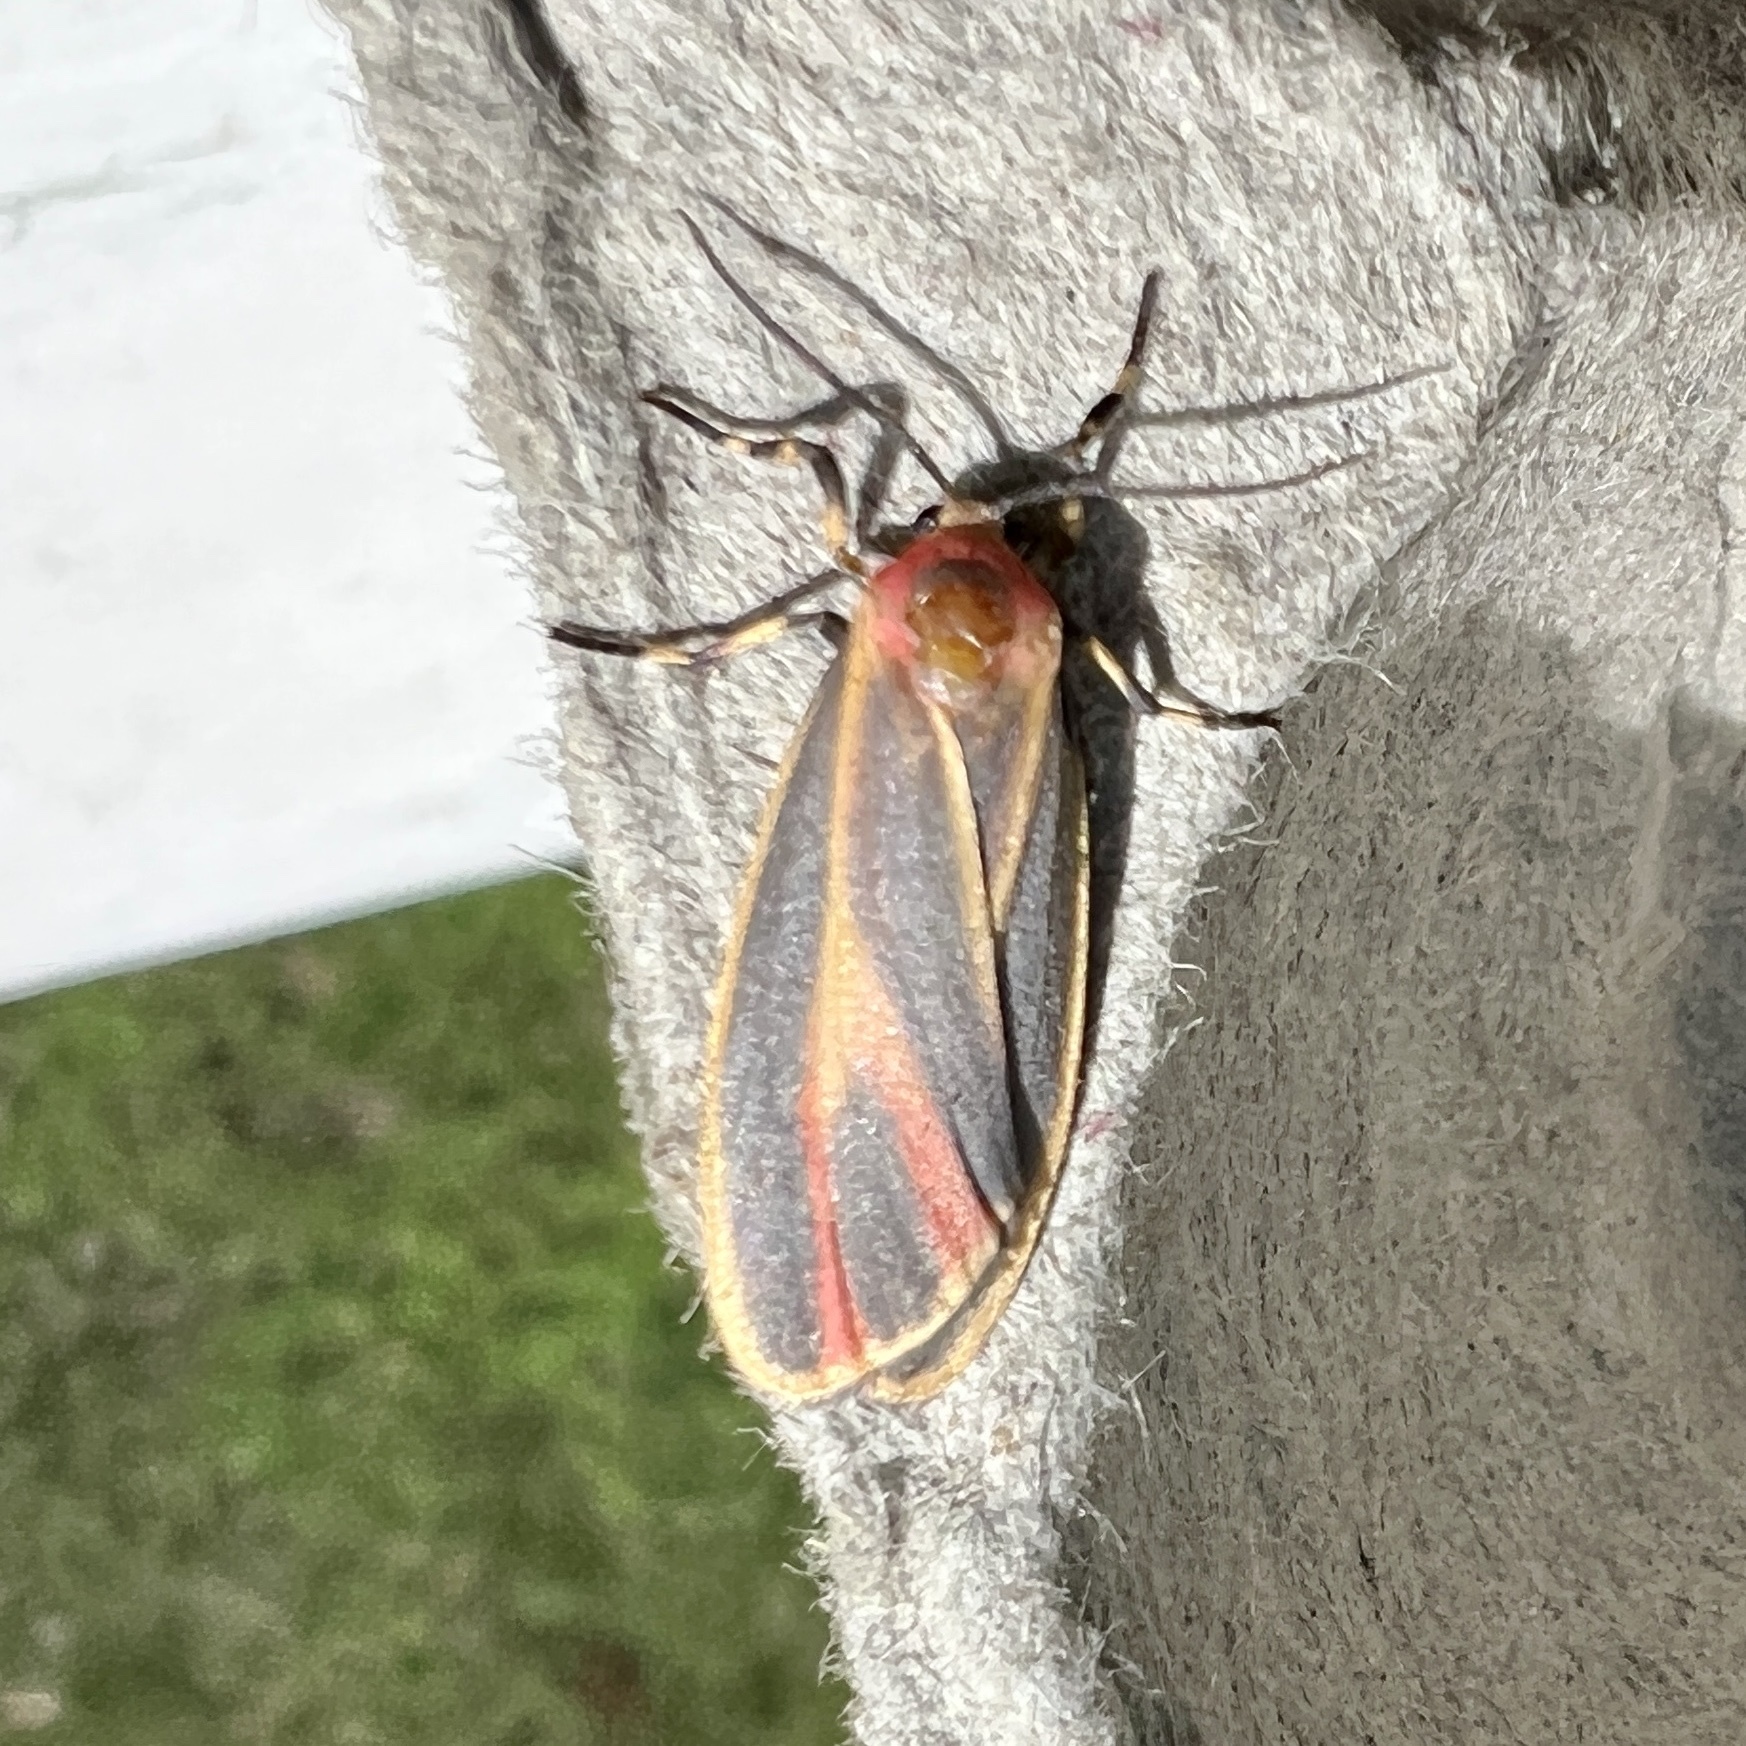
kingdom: Animalia
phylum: Arthropoda
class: Insecta
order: Lepidoptera
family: Erebidae
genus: Hypoprepia
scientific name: Hypoprepia fucosa
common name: Painted lichen moth
